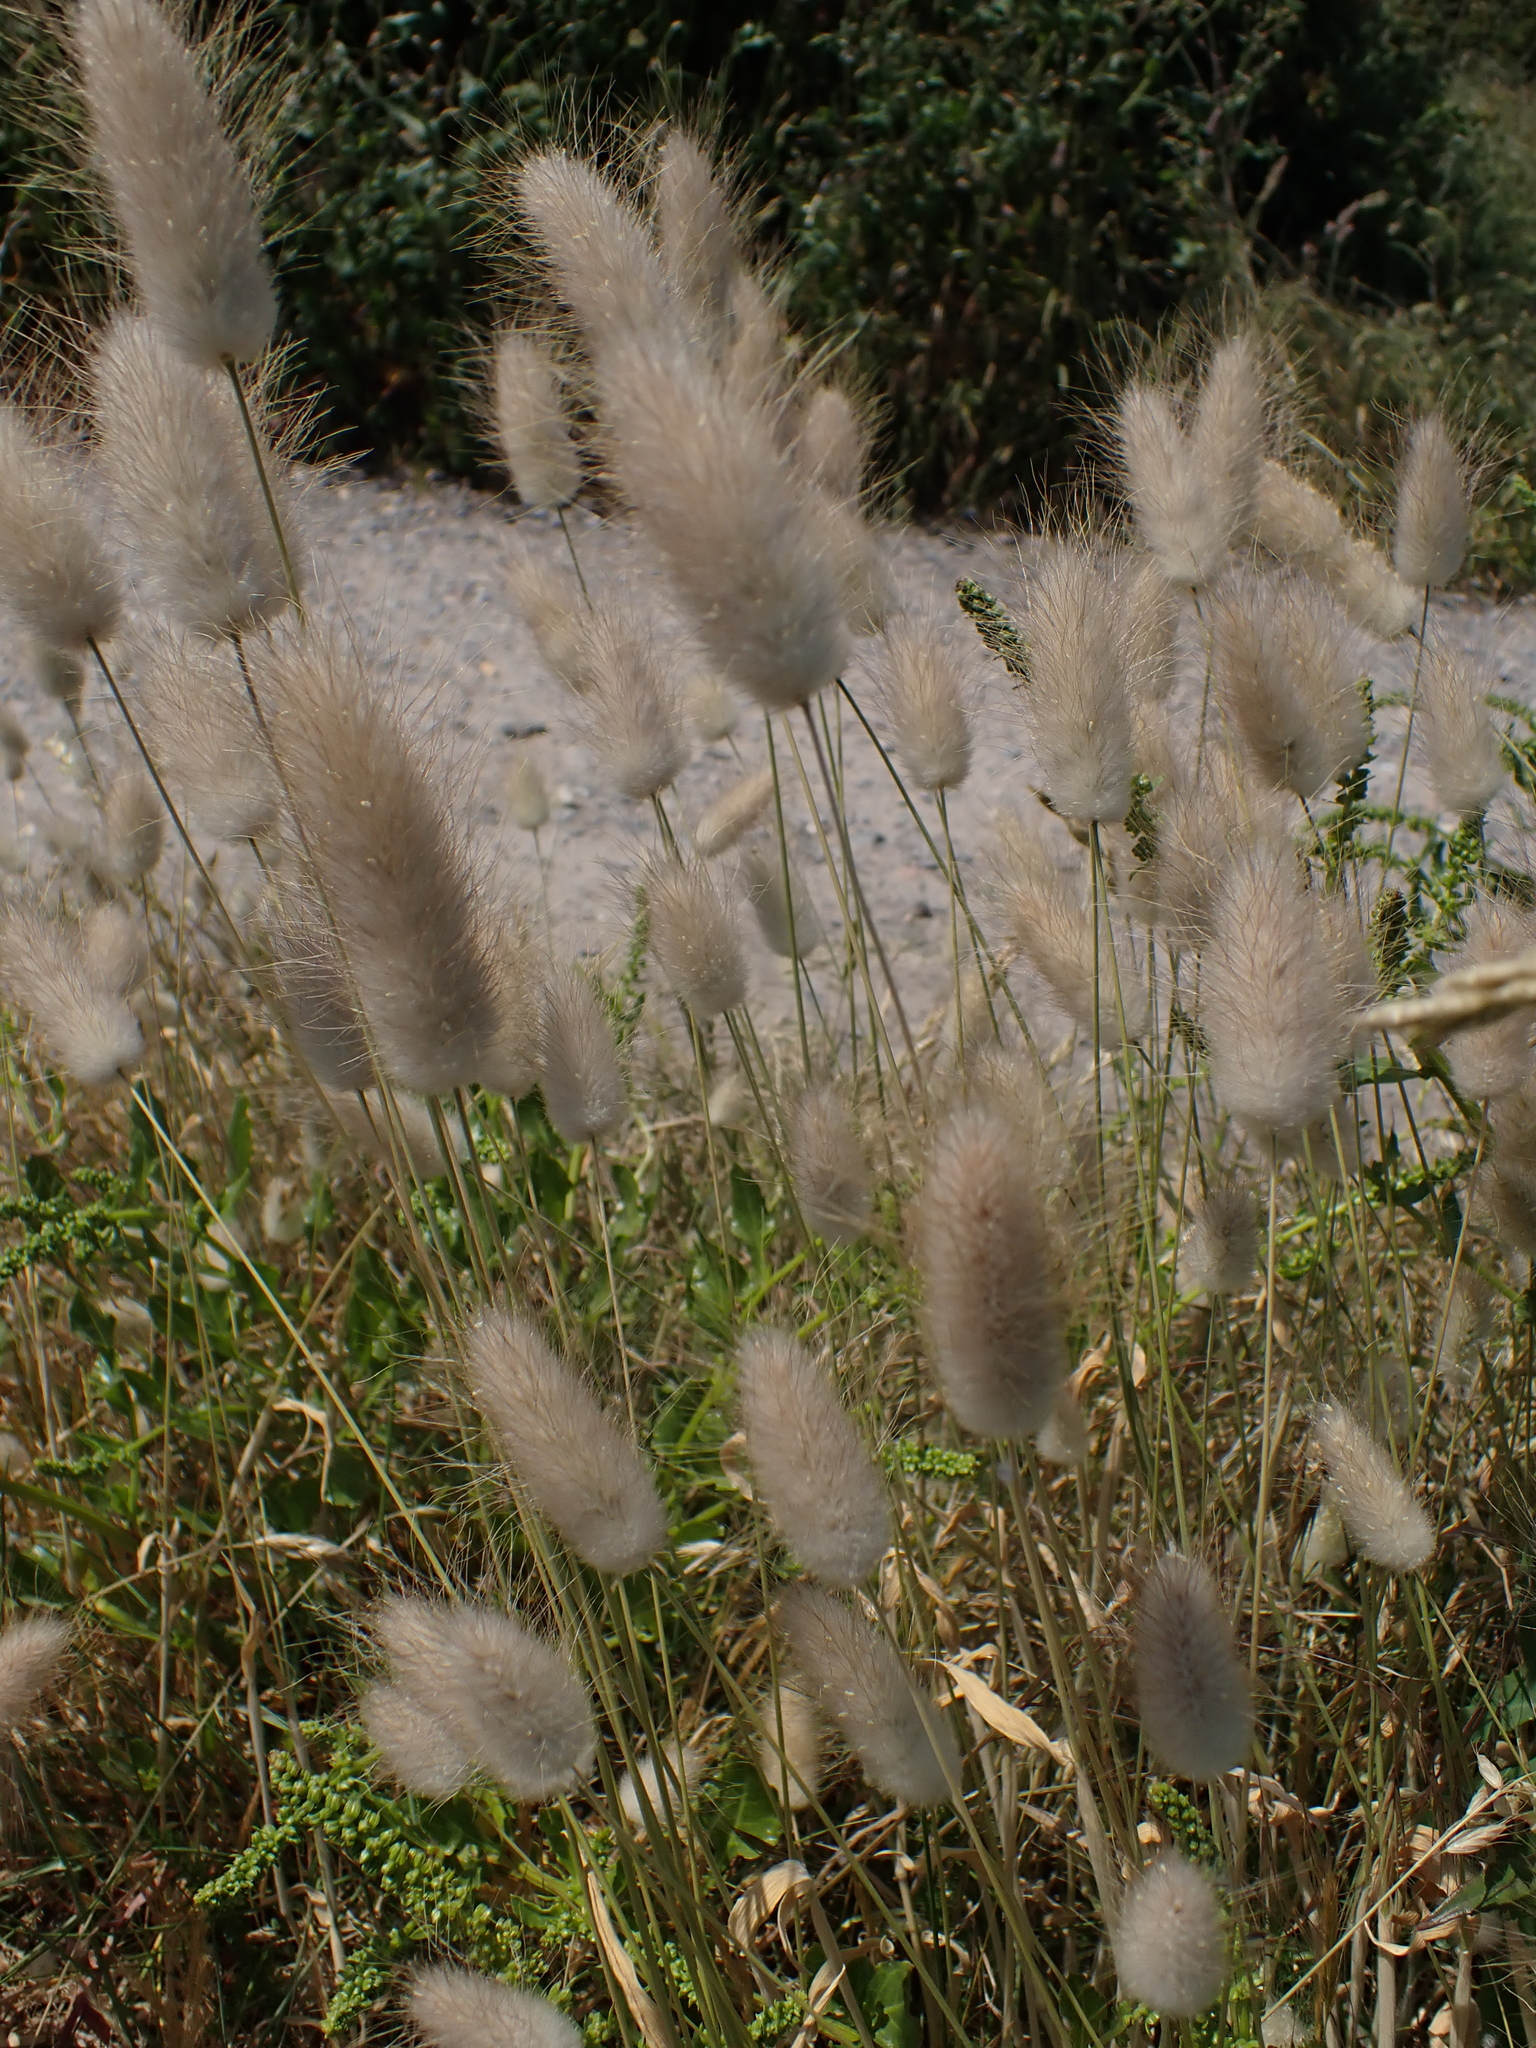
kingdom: Plantae
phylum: Tracheophyta
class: Liliopsida
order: Poales
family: Poaceae
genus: Lagurus
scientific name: Lagurus ovatus
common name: Hare's-tail
